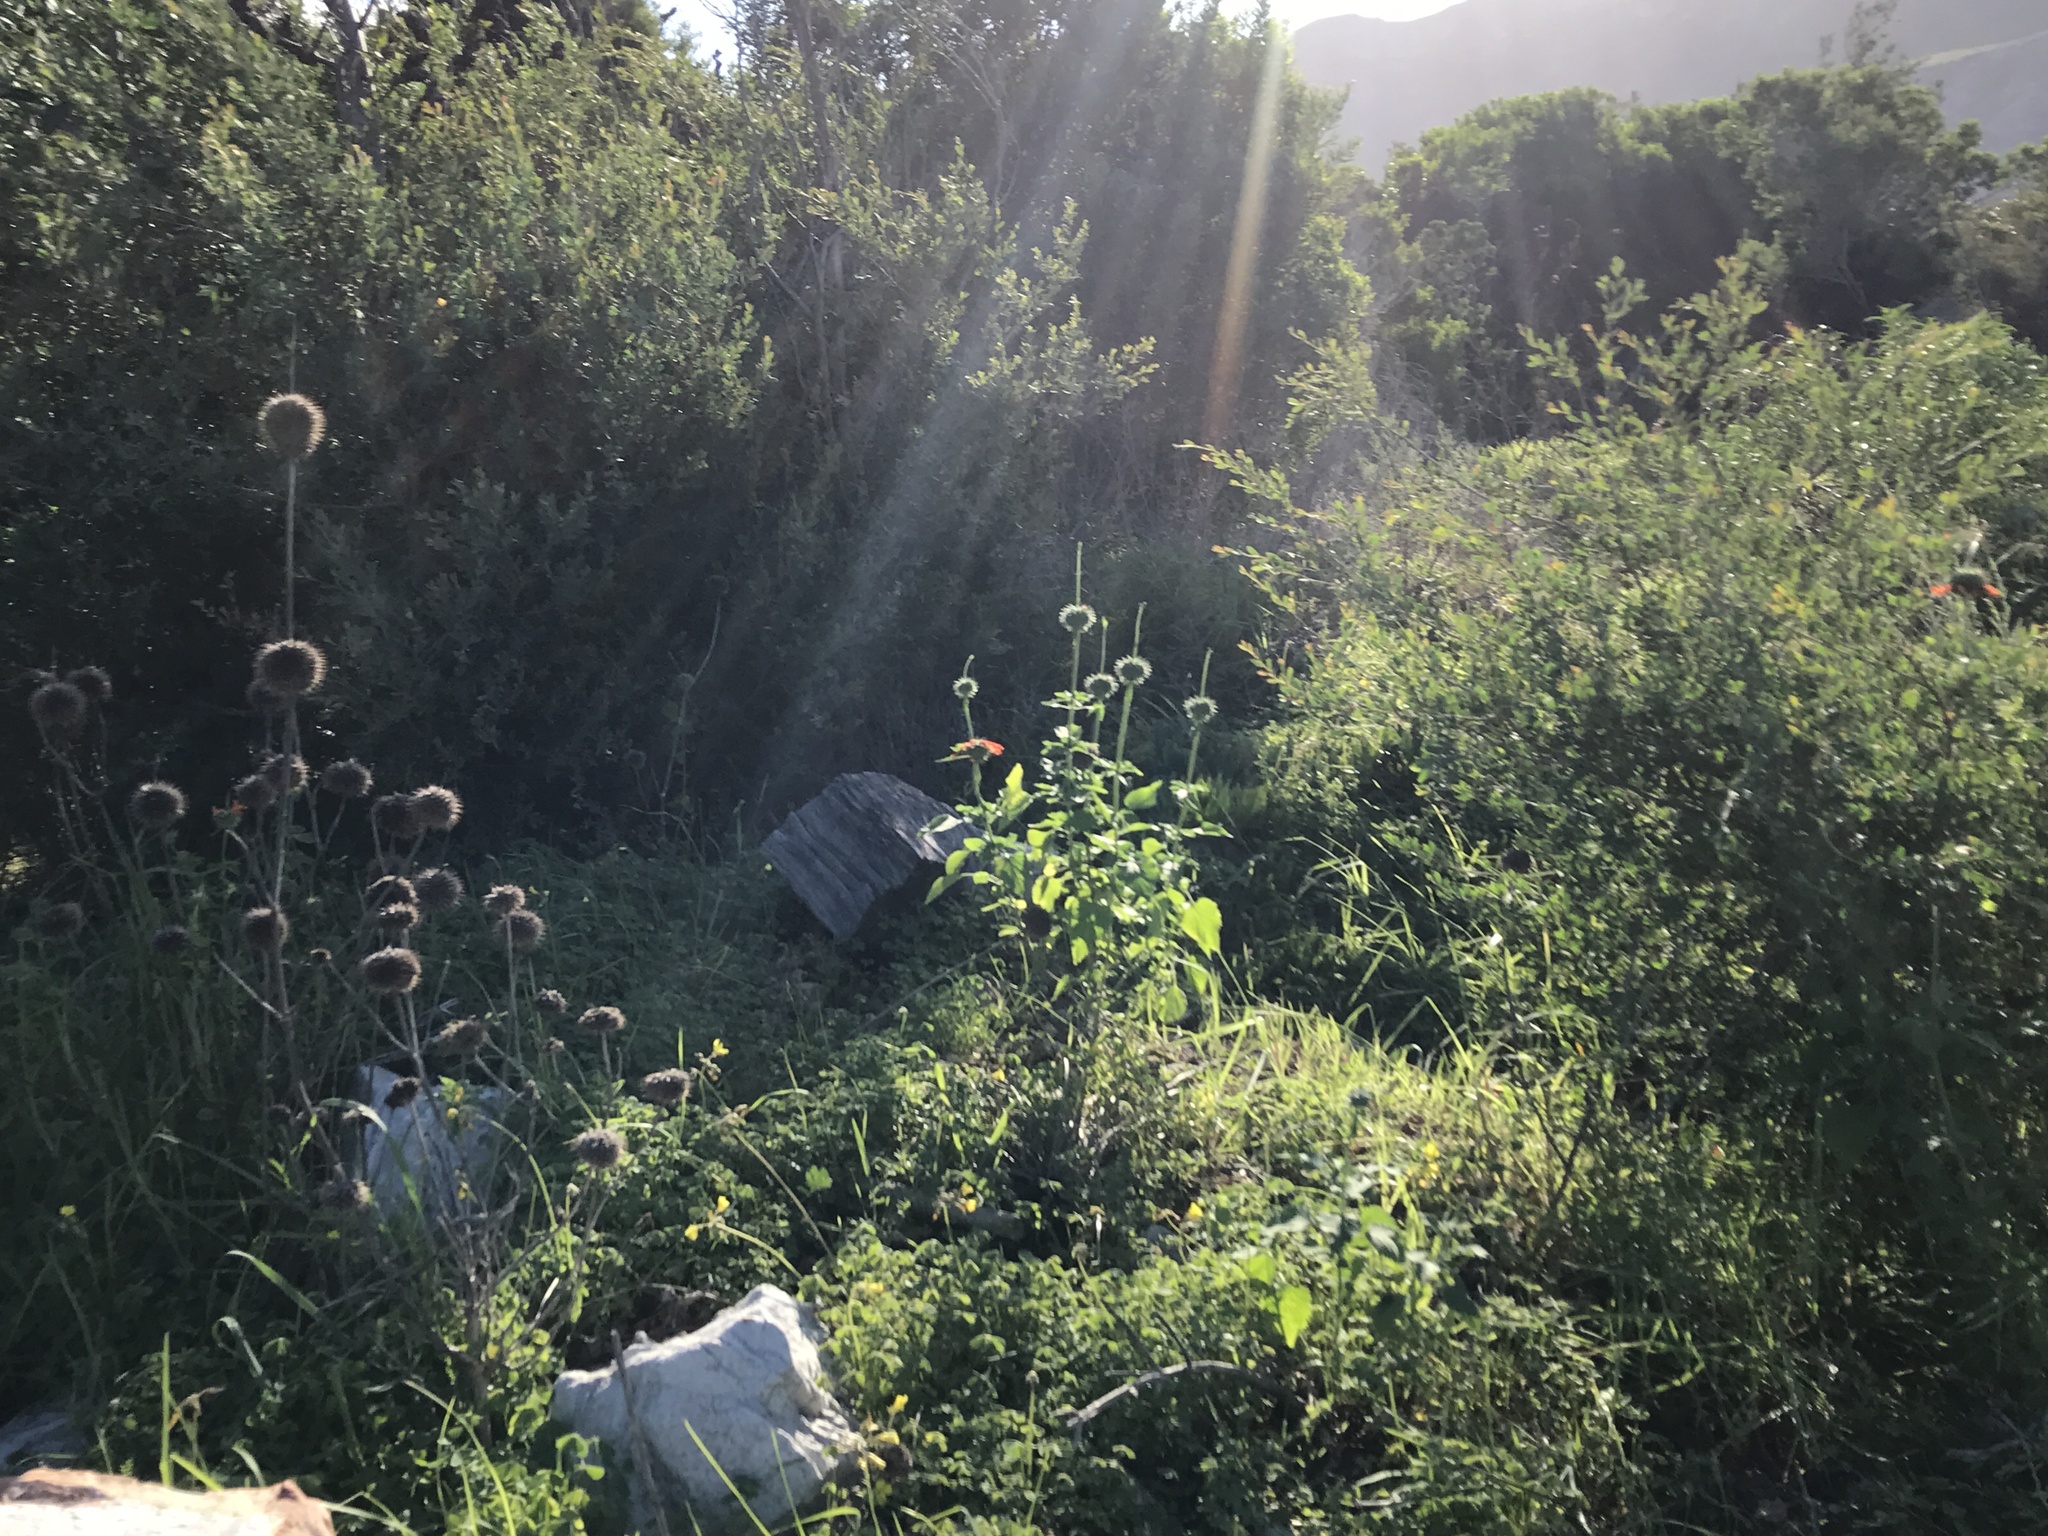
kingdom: Plantae
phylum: Tracheophyta
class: Magnoliopsida
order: Lamiales
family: Lamiaceae
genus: Leonotis
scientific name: Leonotis nepetifolia
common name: Christmas candlestick
